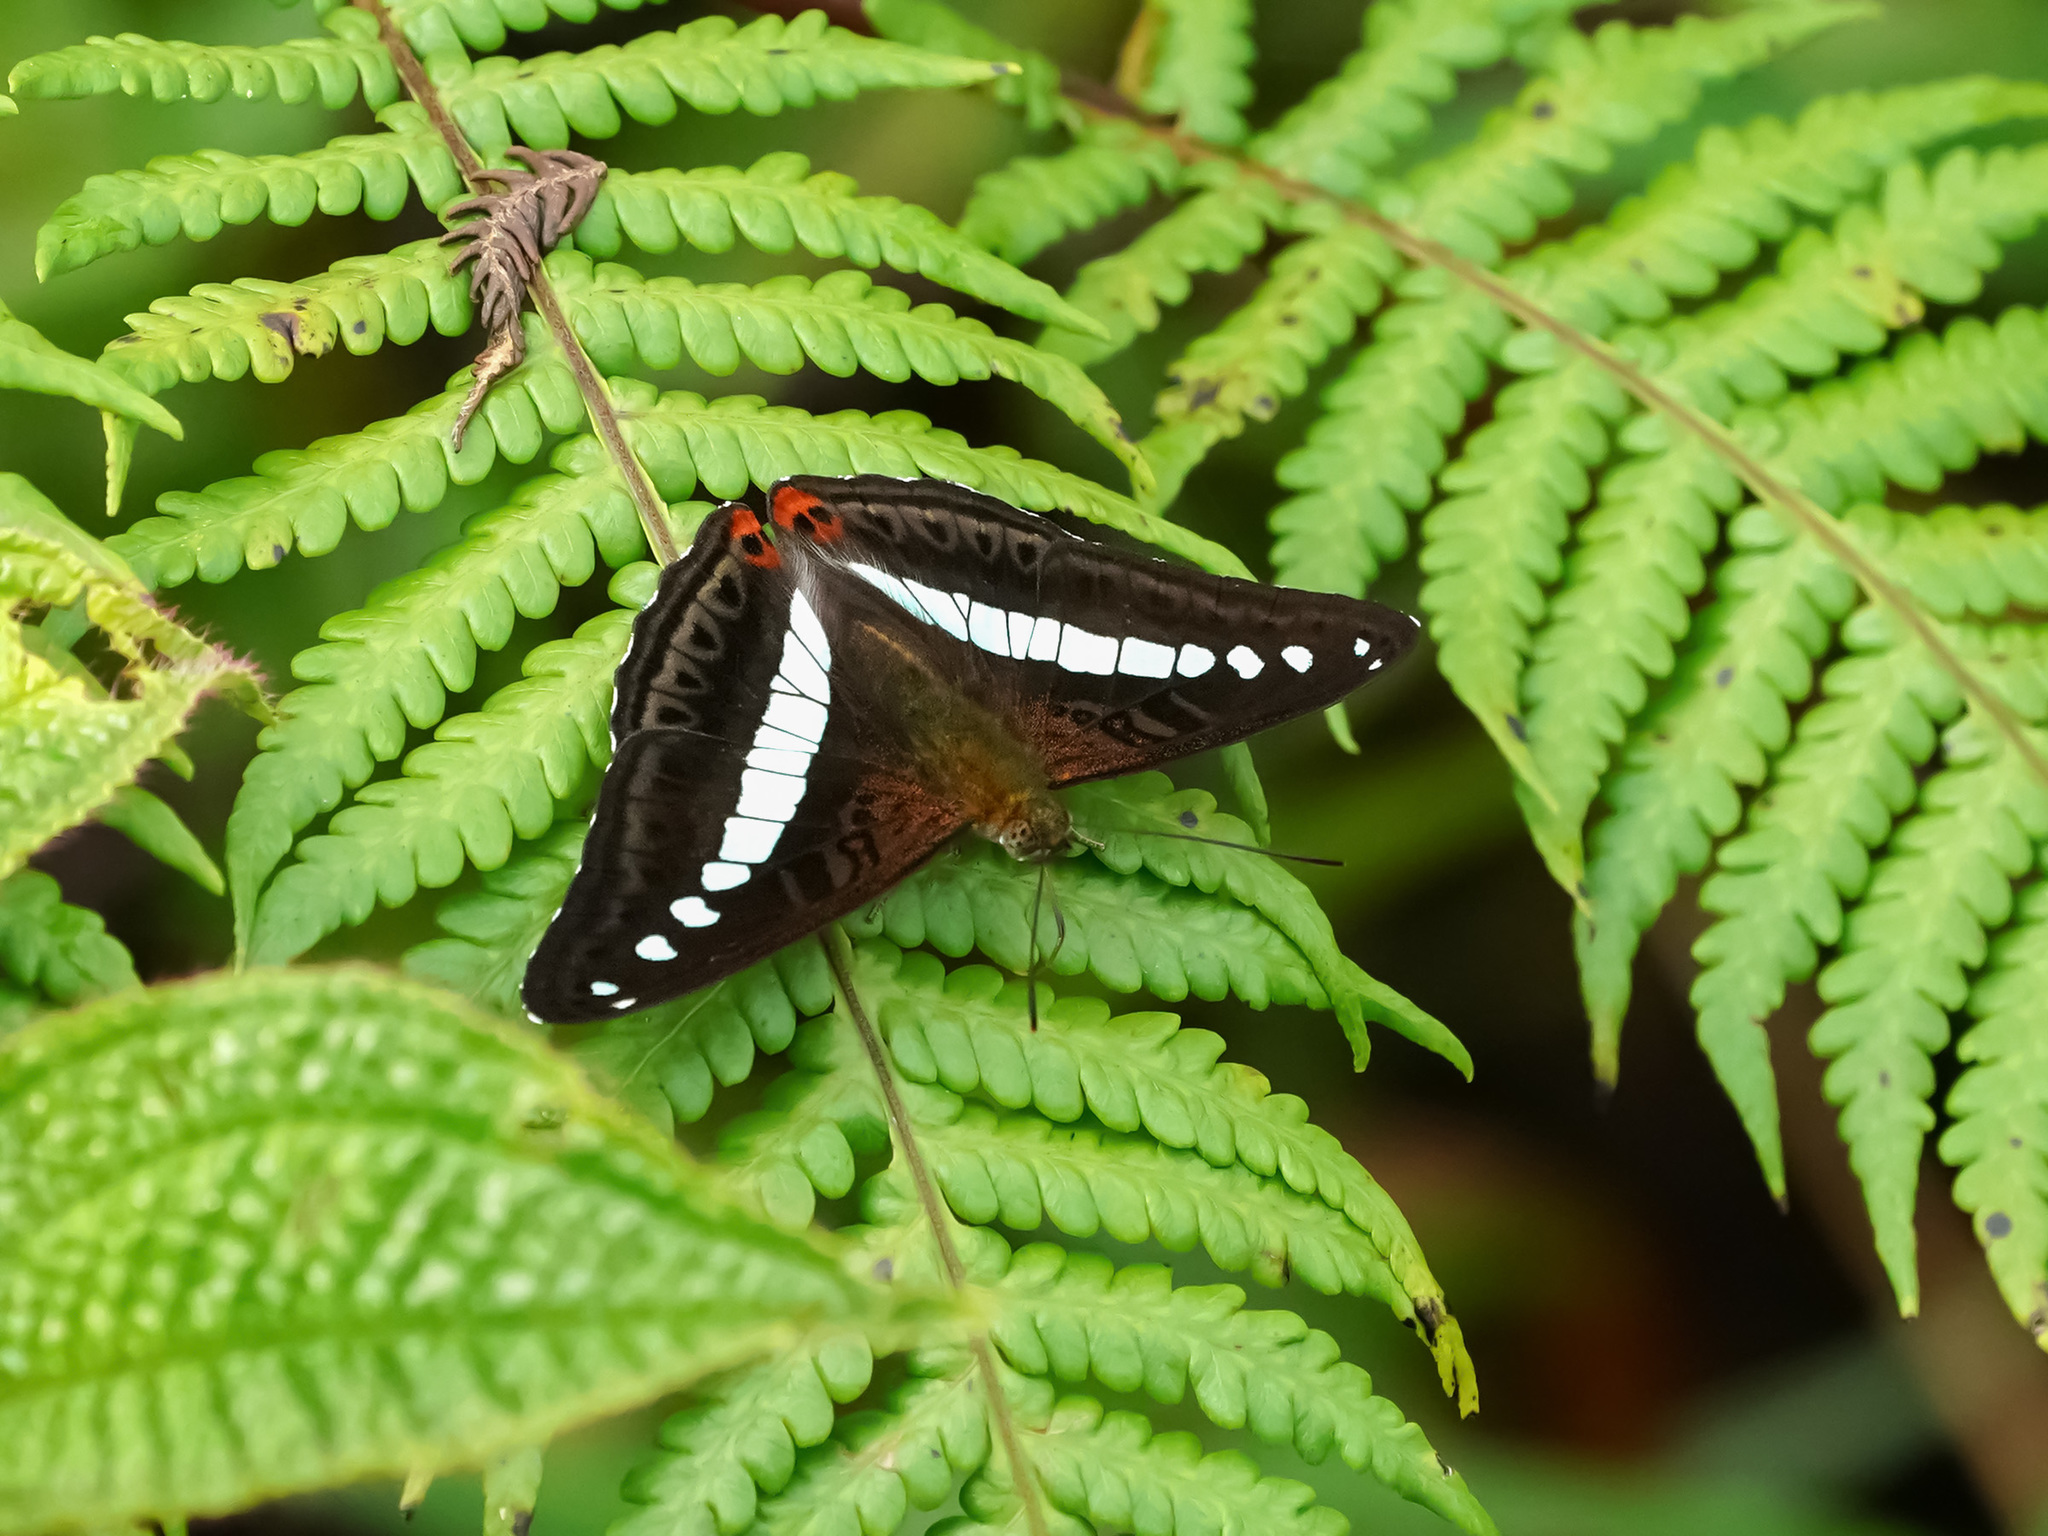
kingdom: Animalia
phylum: Arthropoda
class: Insecta
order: Lepidoptera
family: Nymphalidae
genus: Limenitis
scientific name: Limenitis Sumalia daraxa
